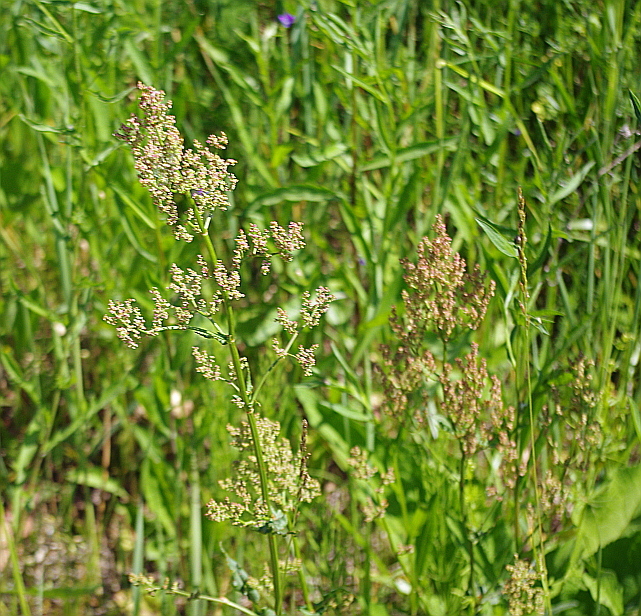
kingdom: Plantae
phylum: Tracheophyta
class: Magnoliopsida
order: Caryophyllales
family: Polygonaceae
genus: Rumex
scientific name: Rumex thyrsiflorus
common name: Garden sorrel
